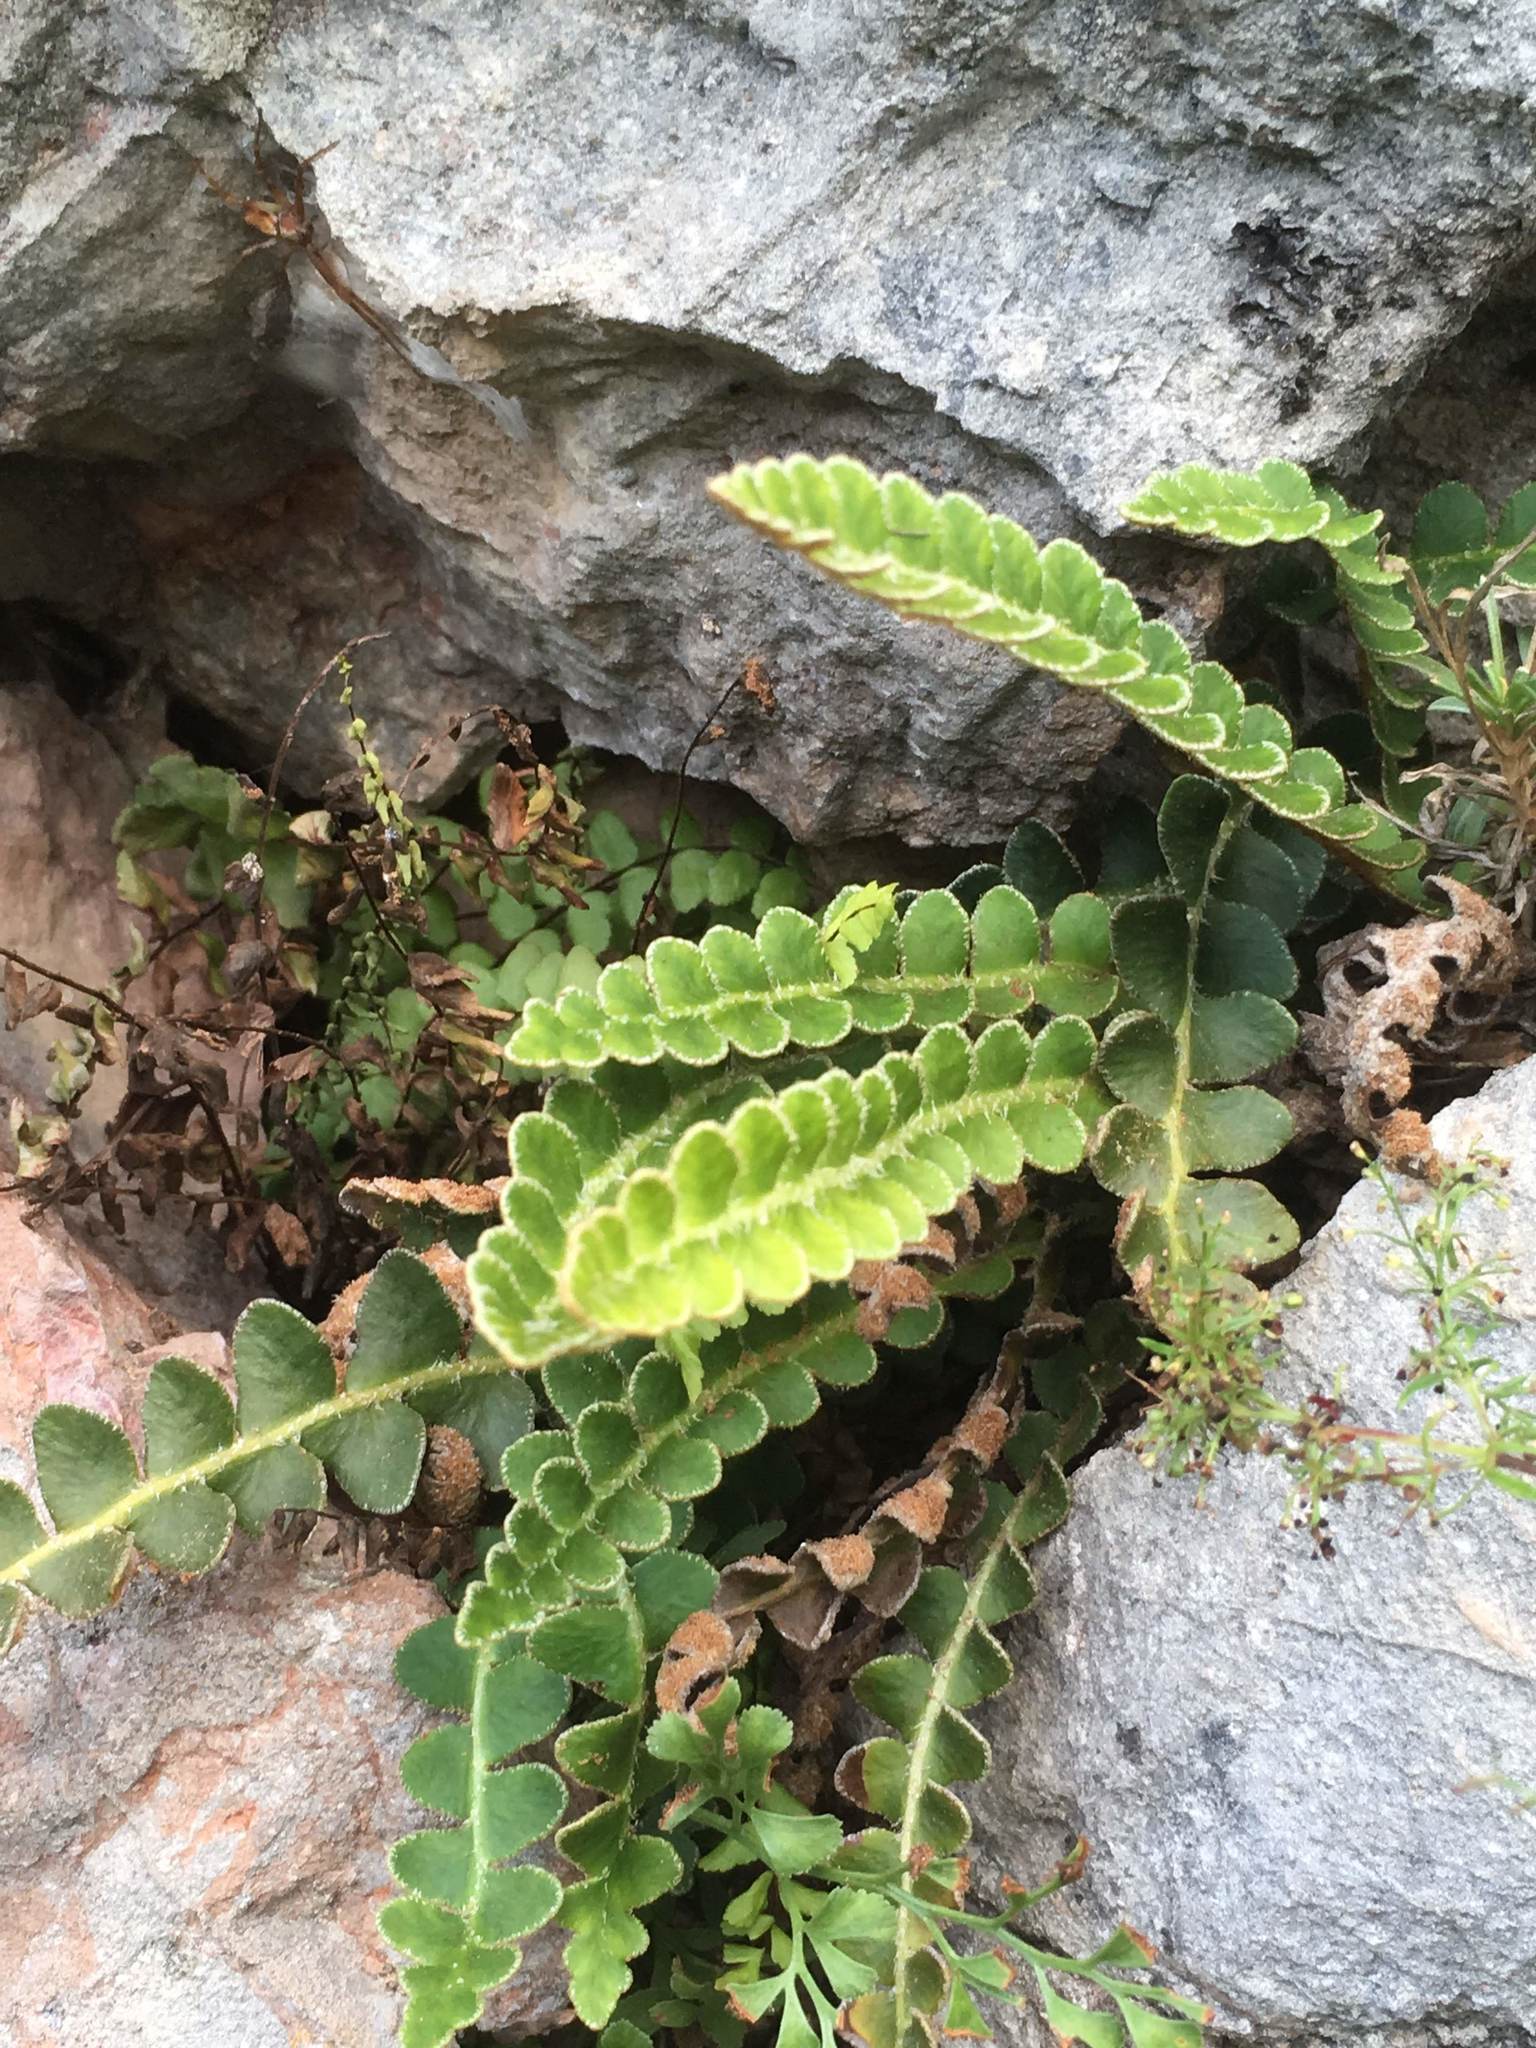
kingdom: Plantae
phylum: Tracheophyta
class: Polypodiopsida
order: Polypodiales
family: Aspleniaceae
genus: Asplenium
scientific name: Asplenium ceterach
